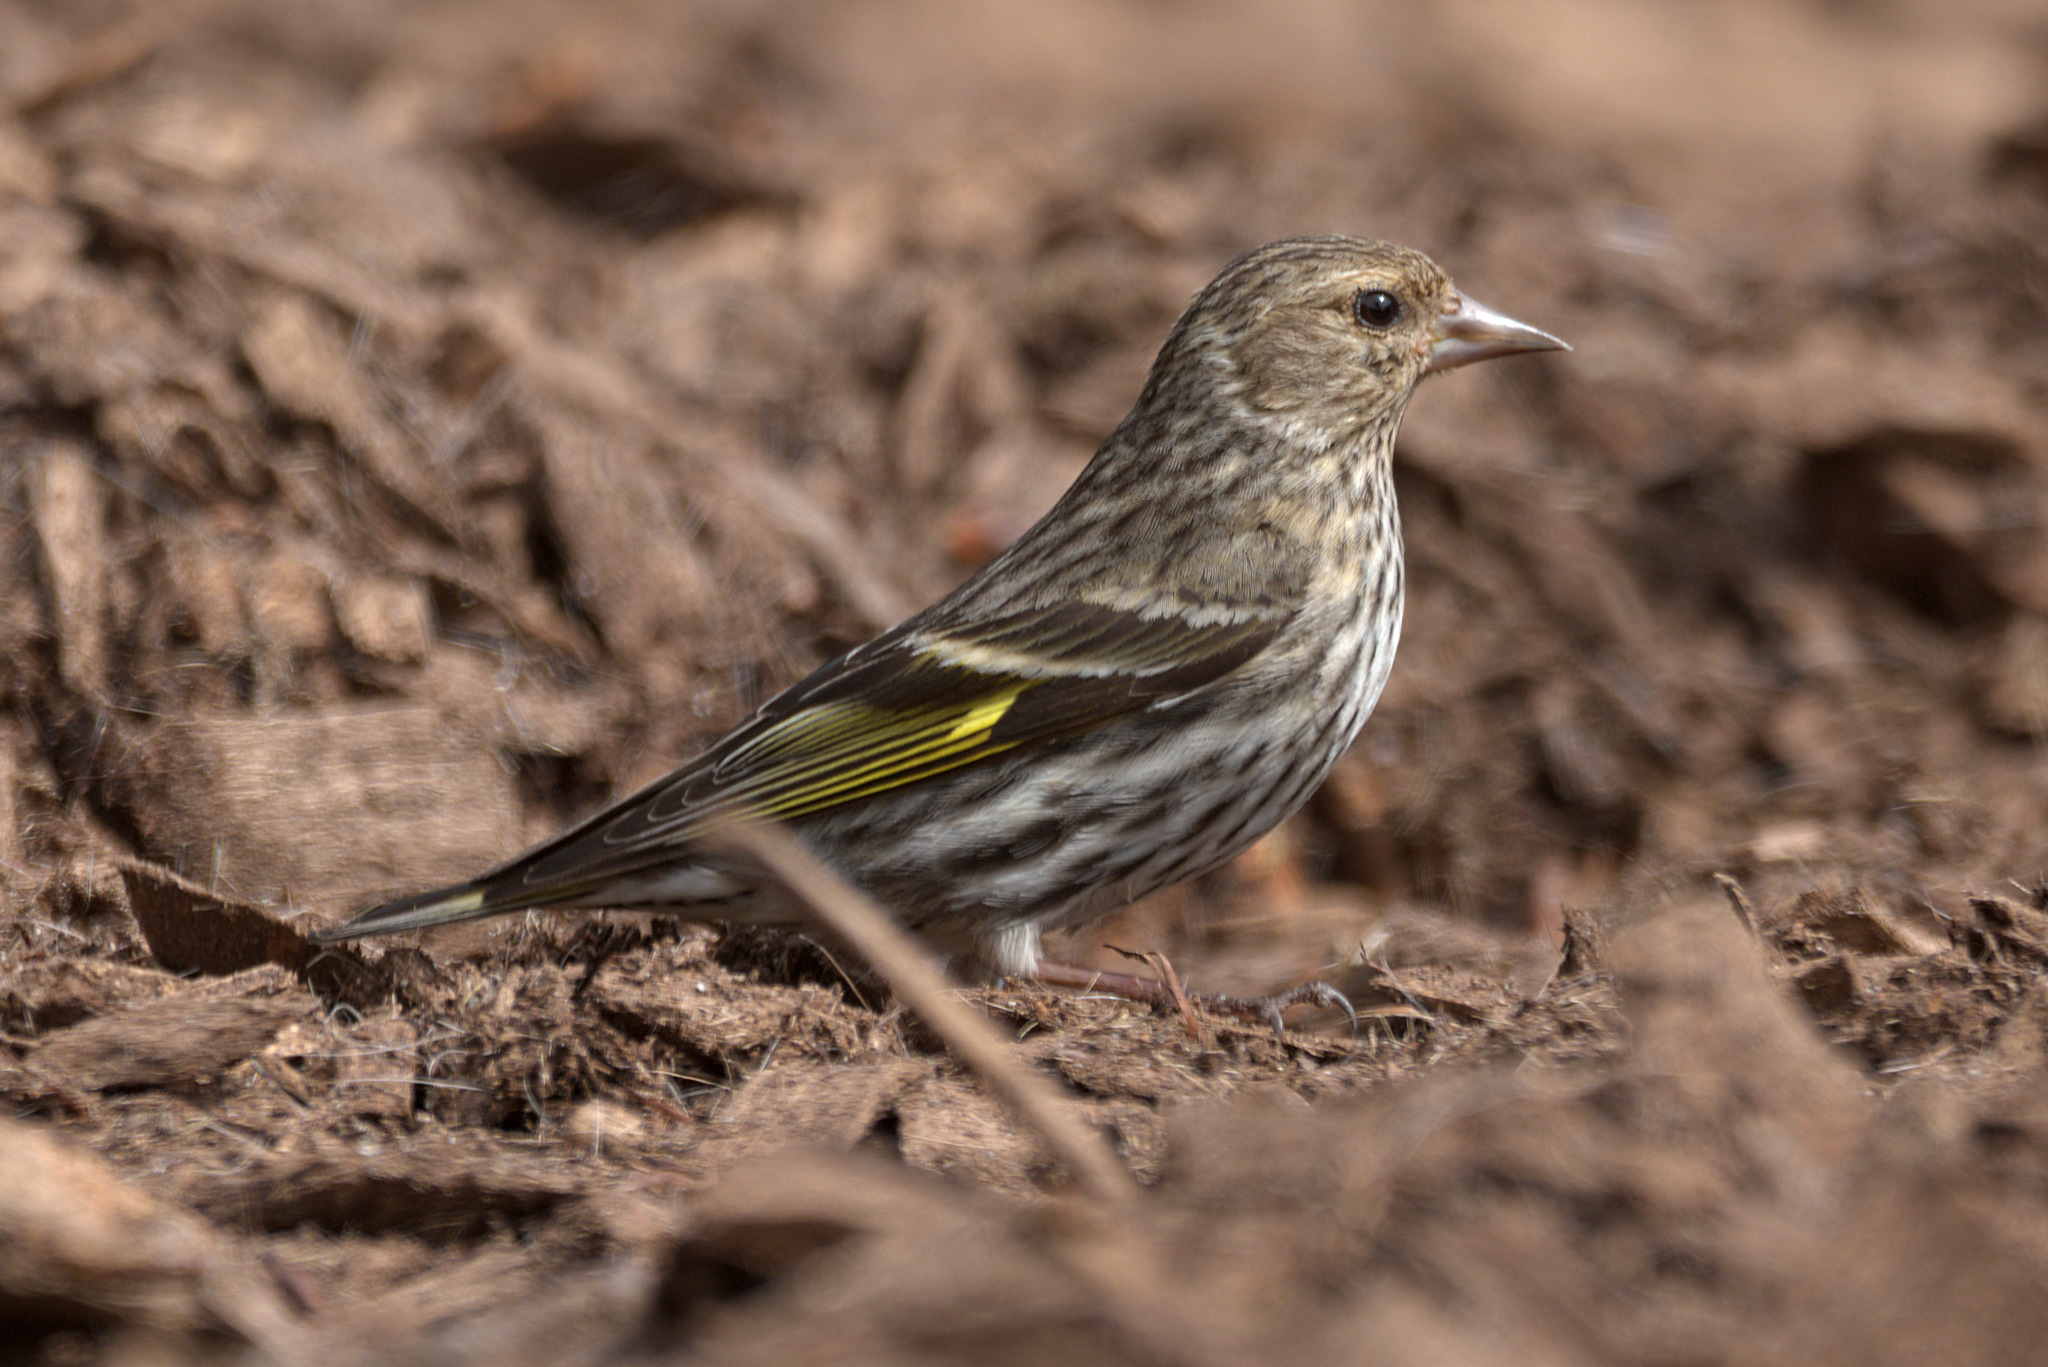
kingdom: Animalia
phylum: Chordata
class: Aves
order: Passeriformes
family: Fringillidae
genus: Spinus
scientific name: Spinus pinus
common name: Pine siskin
